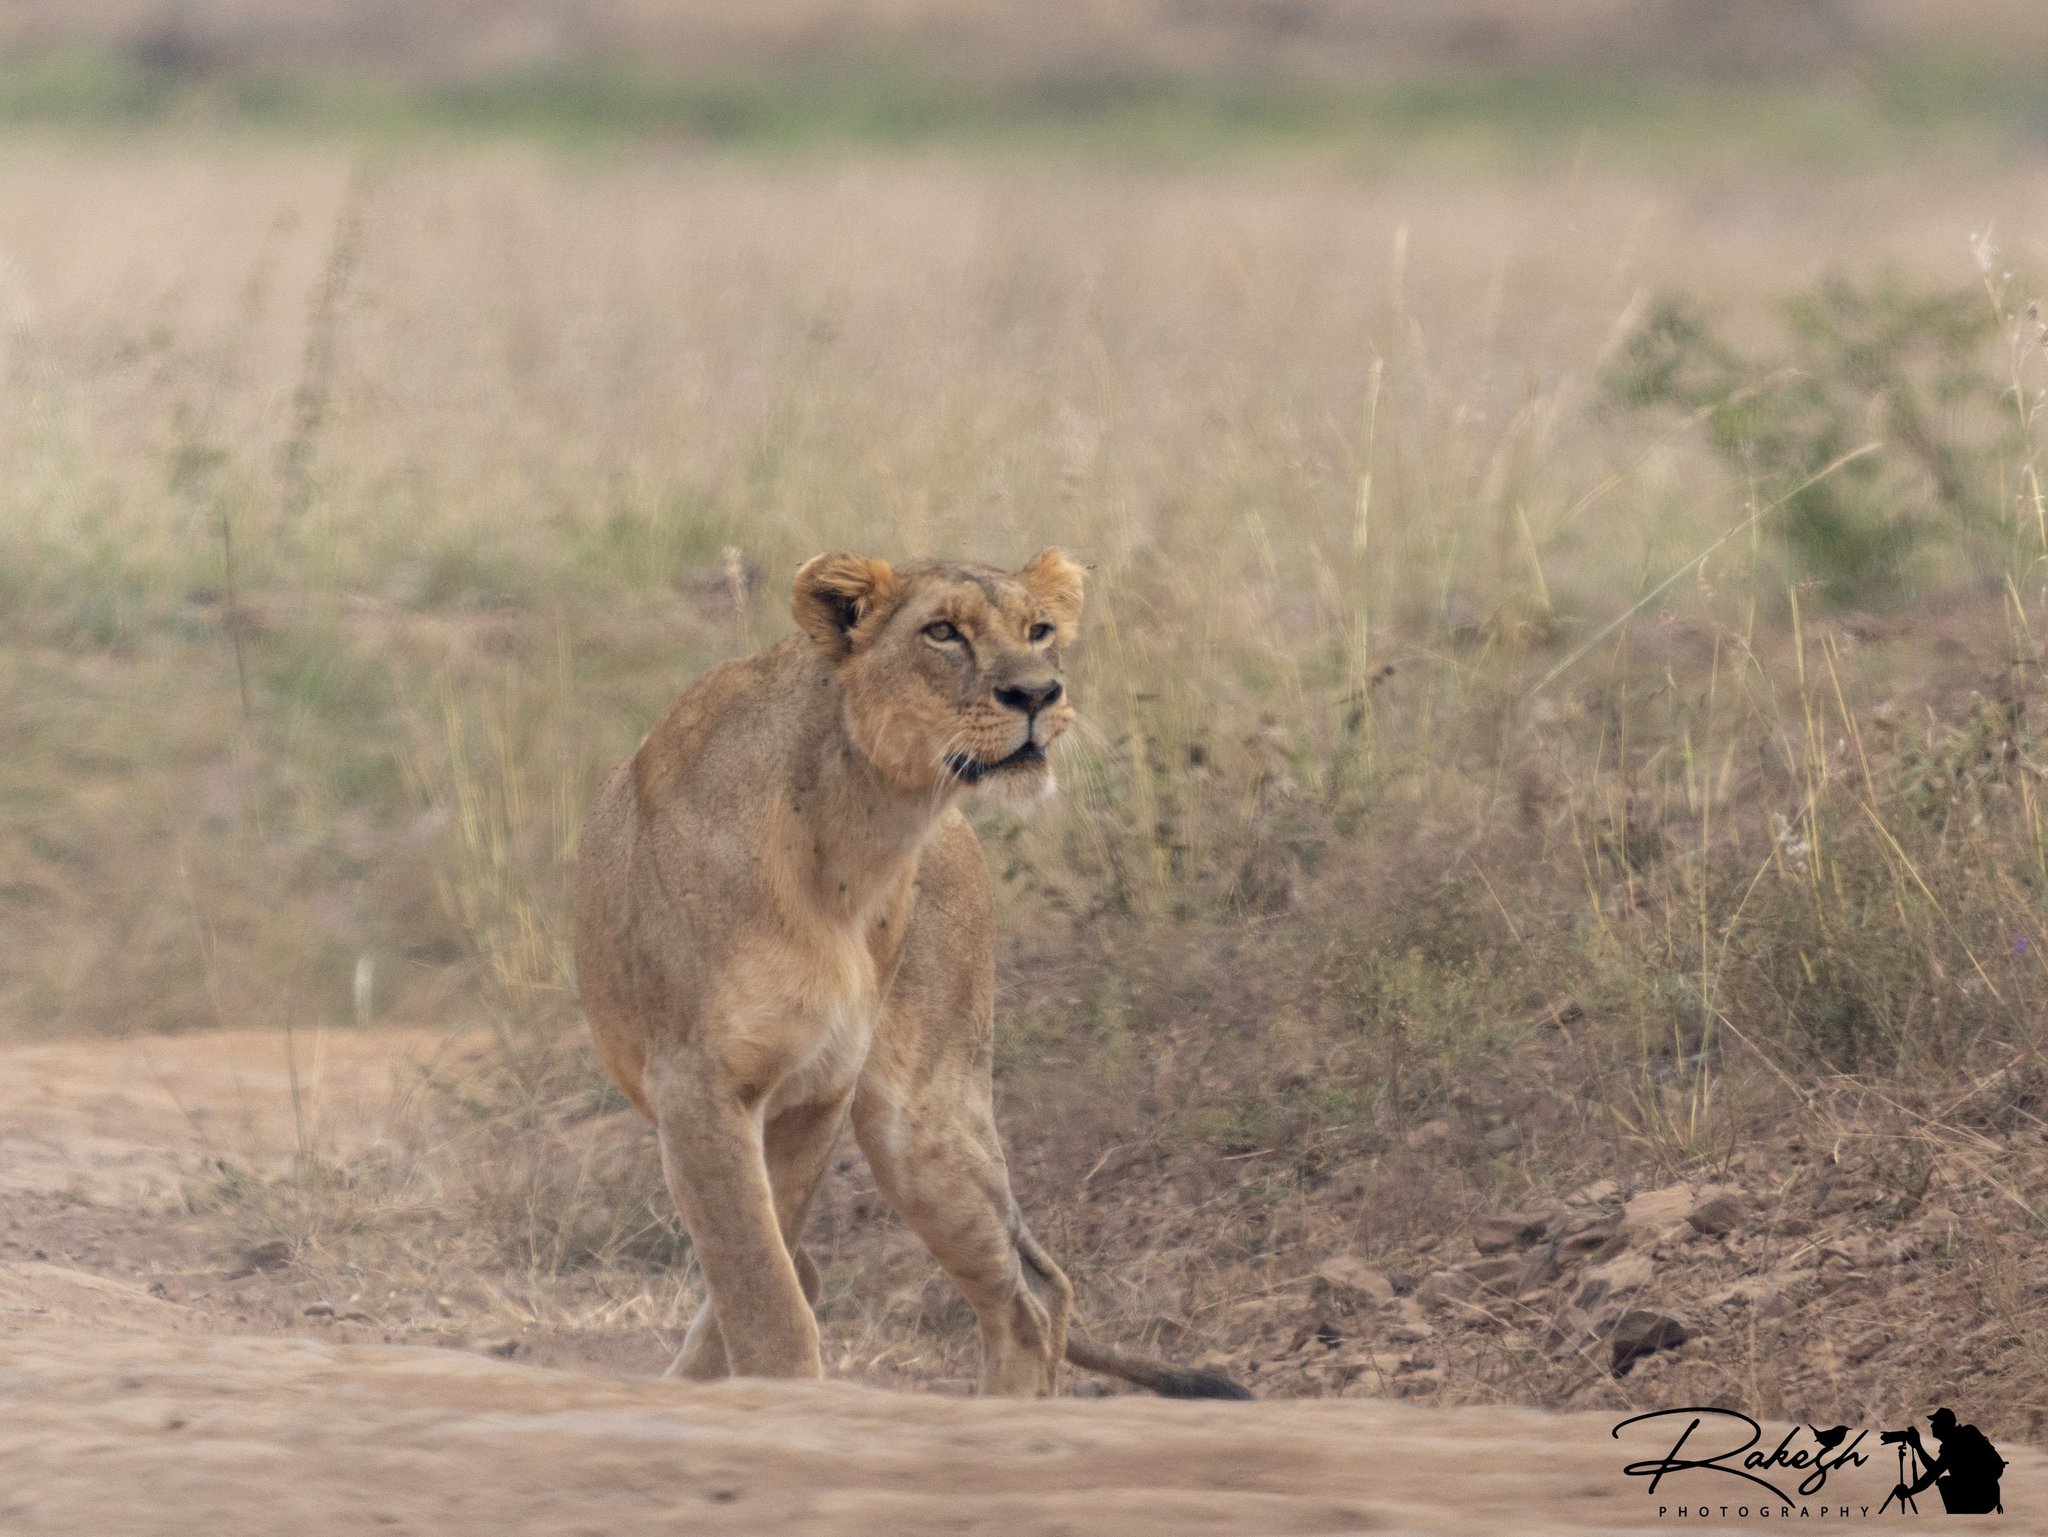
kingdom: Animalia
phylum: Chordata
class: Mammalia
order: Carnivora
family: Felidae
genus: Panthera
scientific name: Panthera leo
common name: Lion
